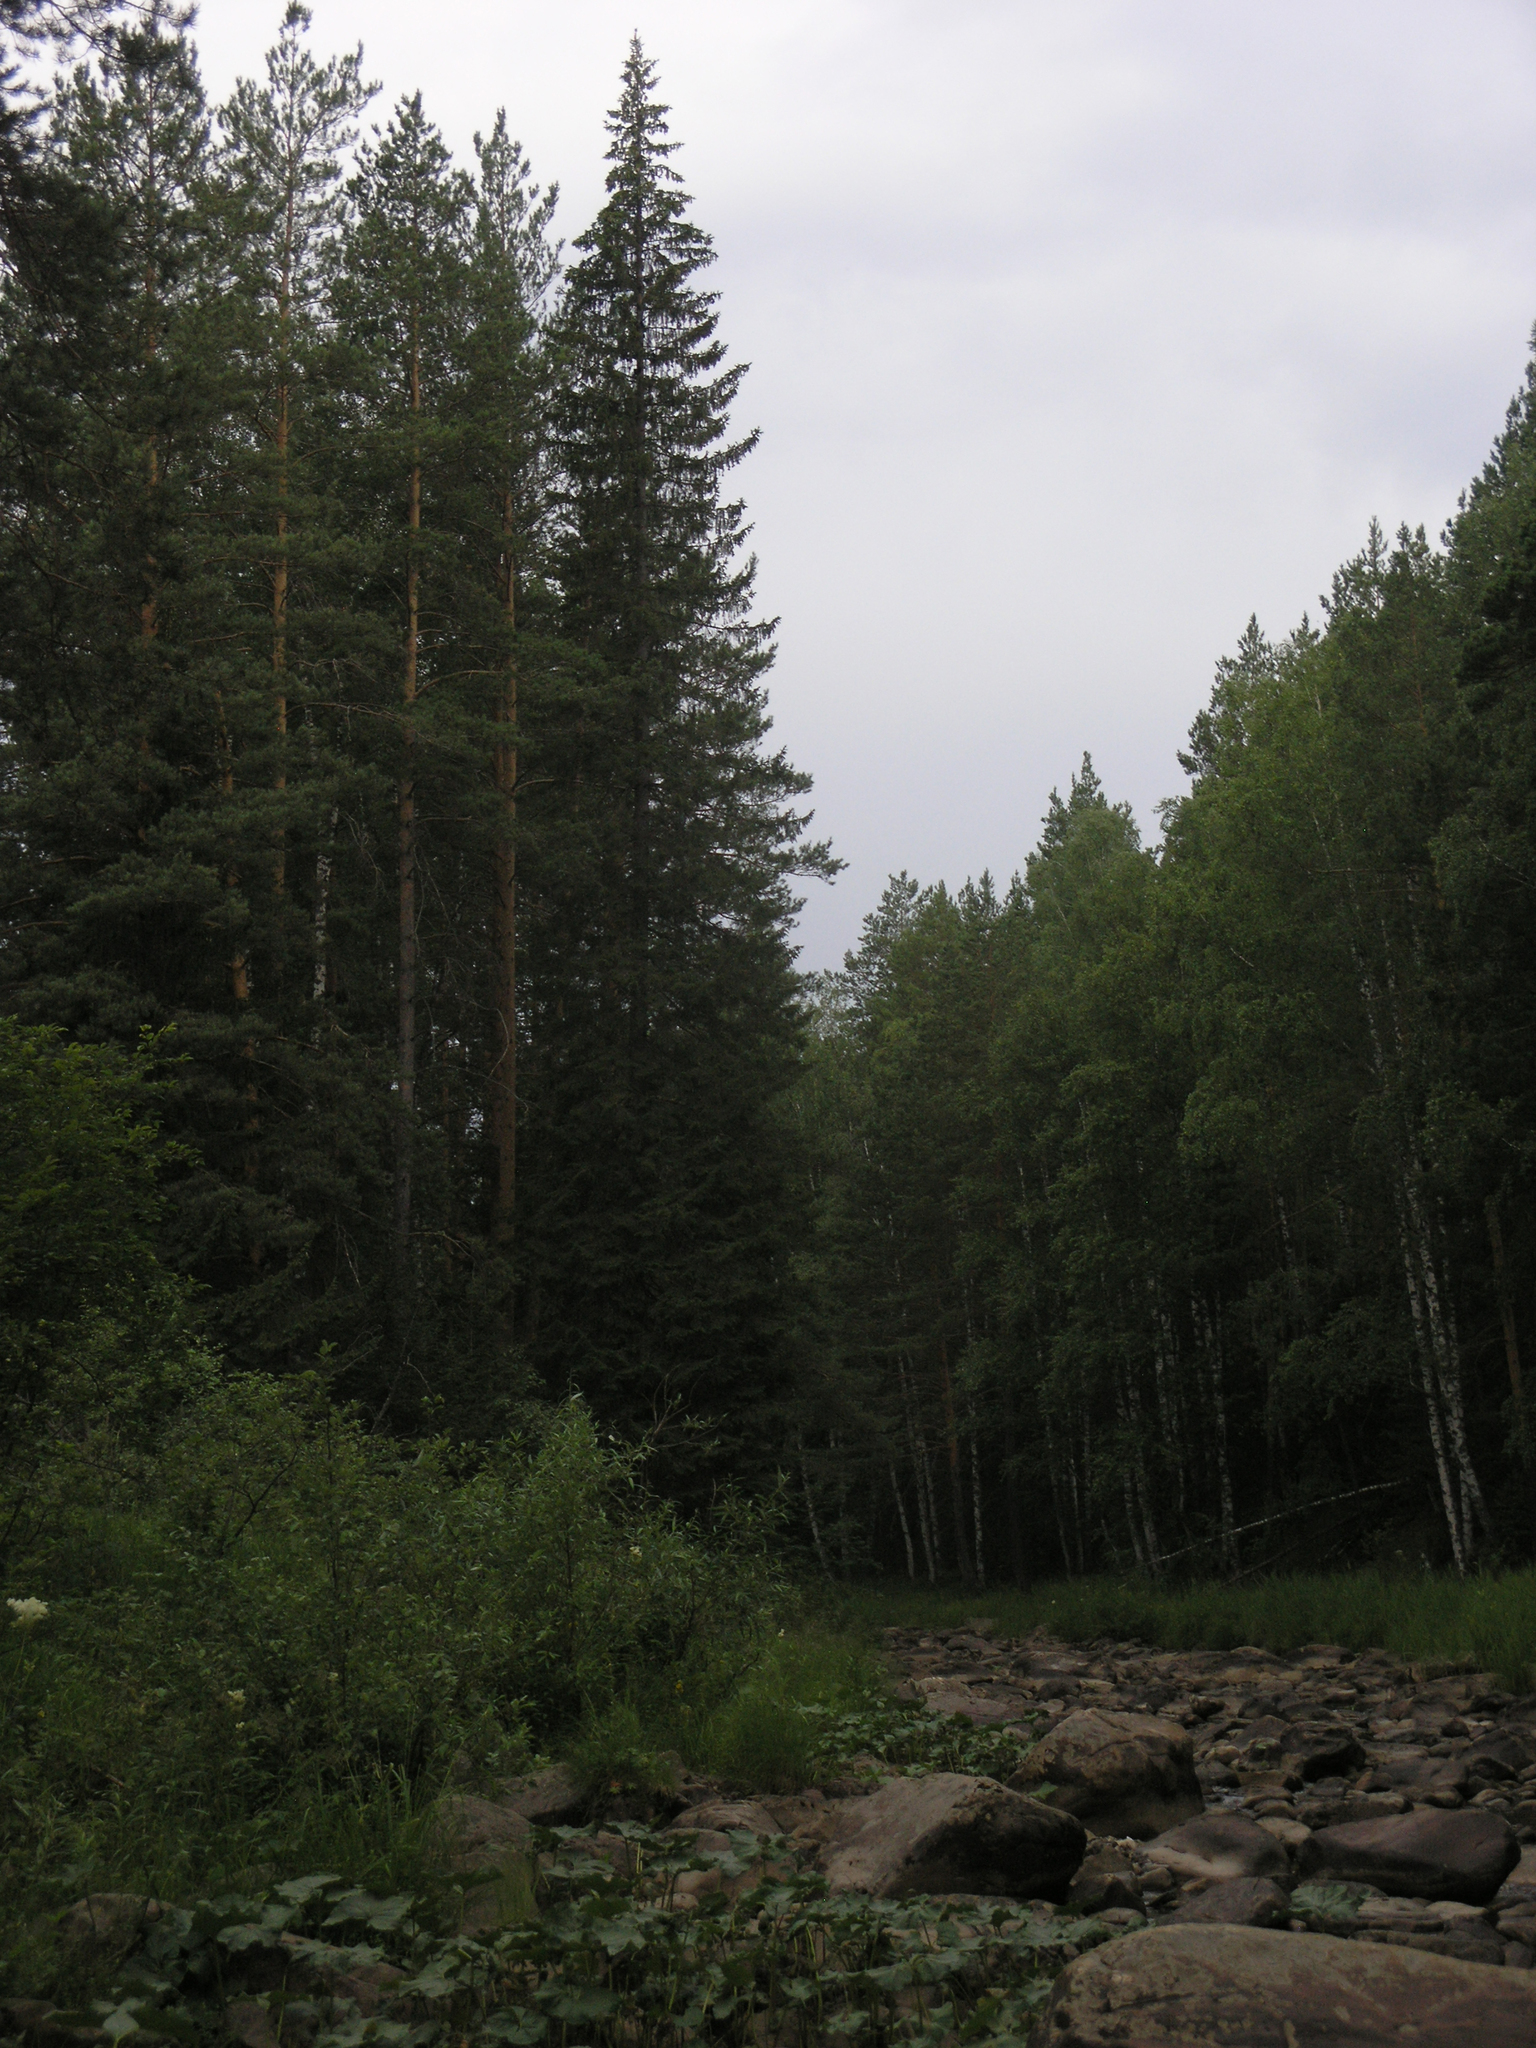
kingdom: Plantae
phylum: Tracheophyta
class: Pinopsida
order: Pinales
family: Pinaceae
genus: Picea
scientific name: Picea
